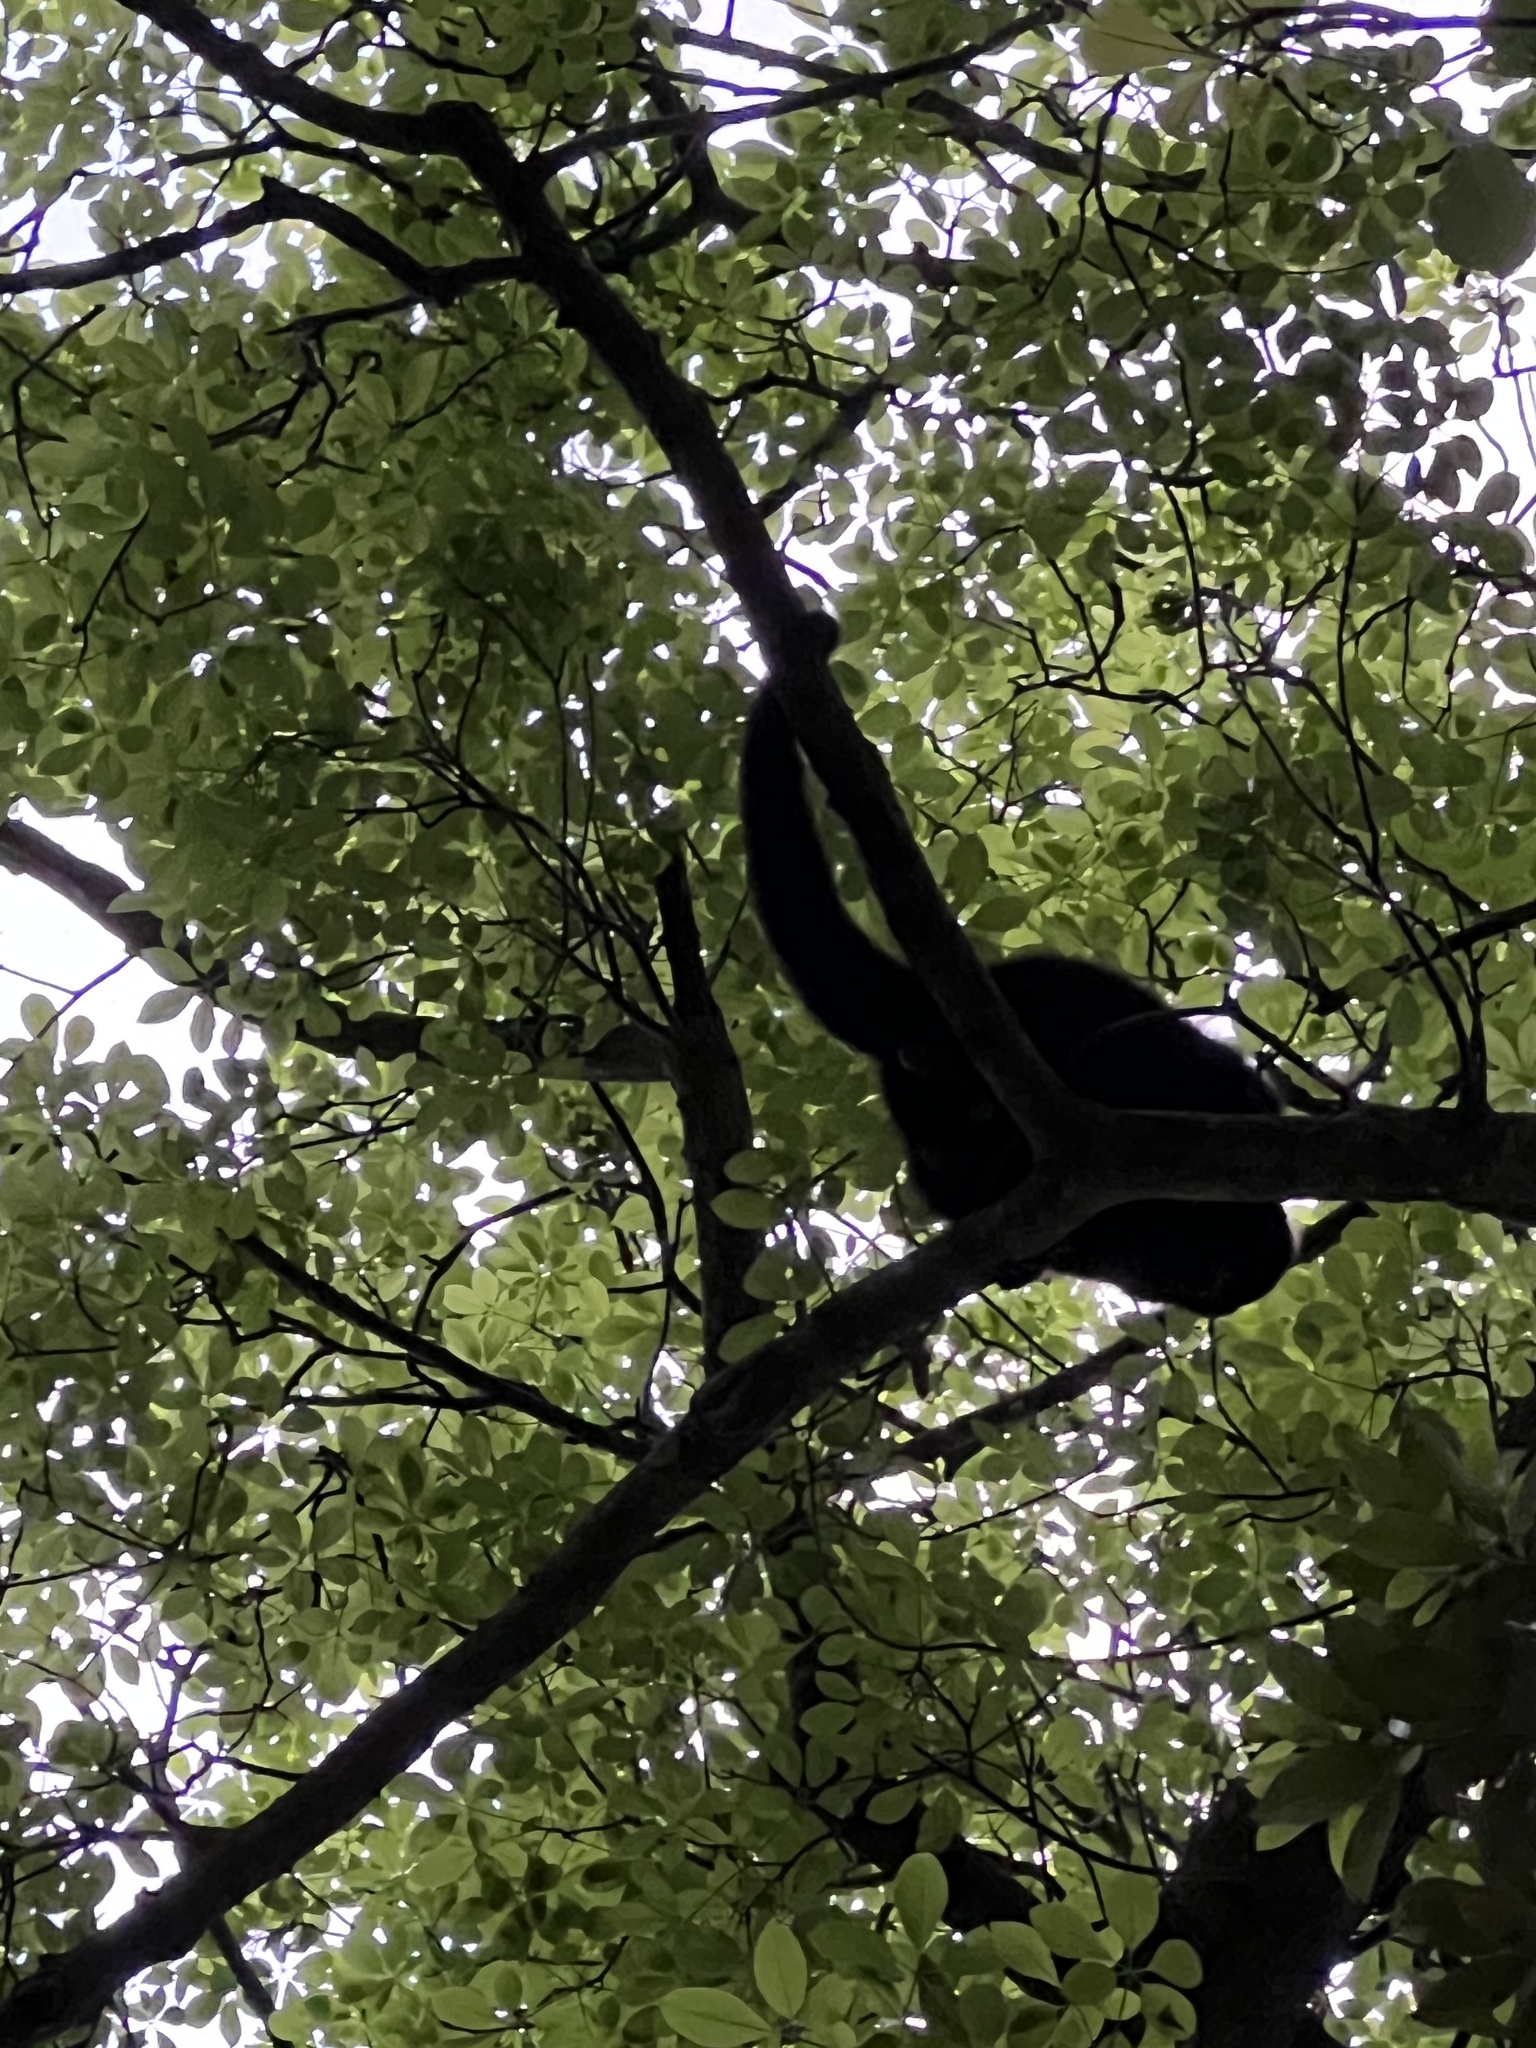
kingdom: Animalia
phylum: Chordata
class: Mammalia
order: Primates
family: Atelidae
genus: Alouatta
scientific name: Alouatta caraya
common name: Black howler
